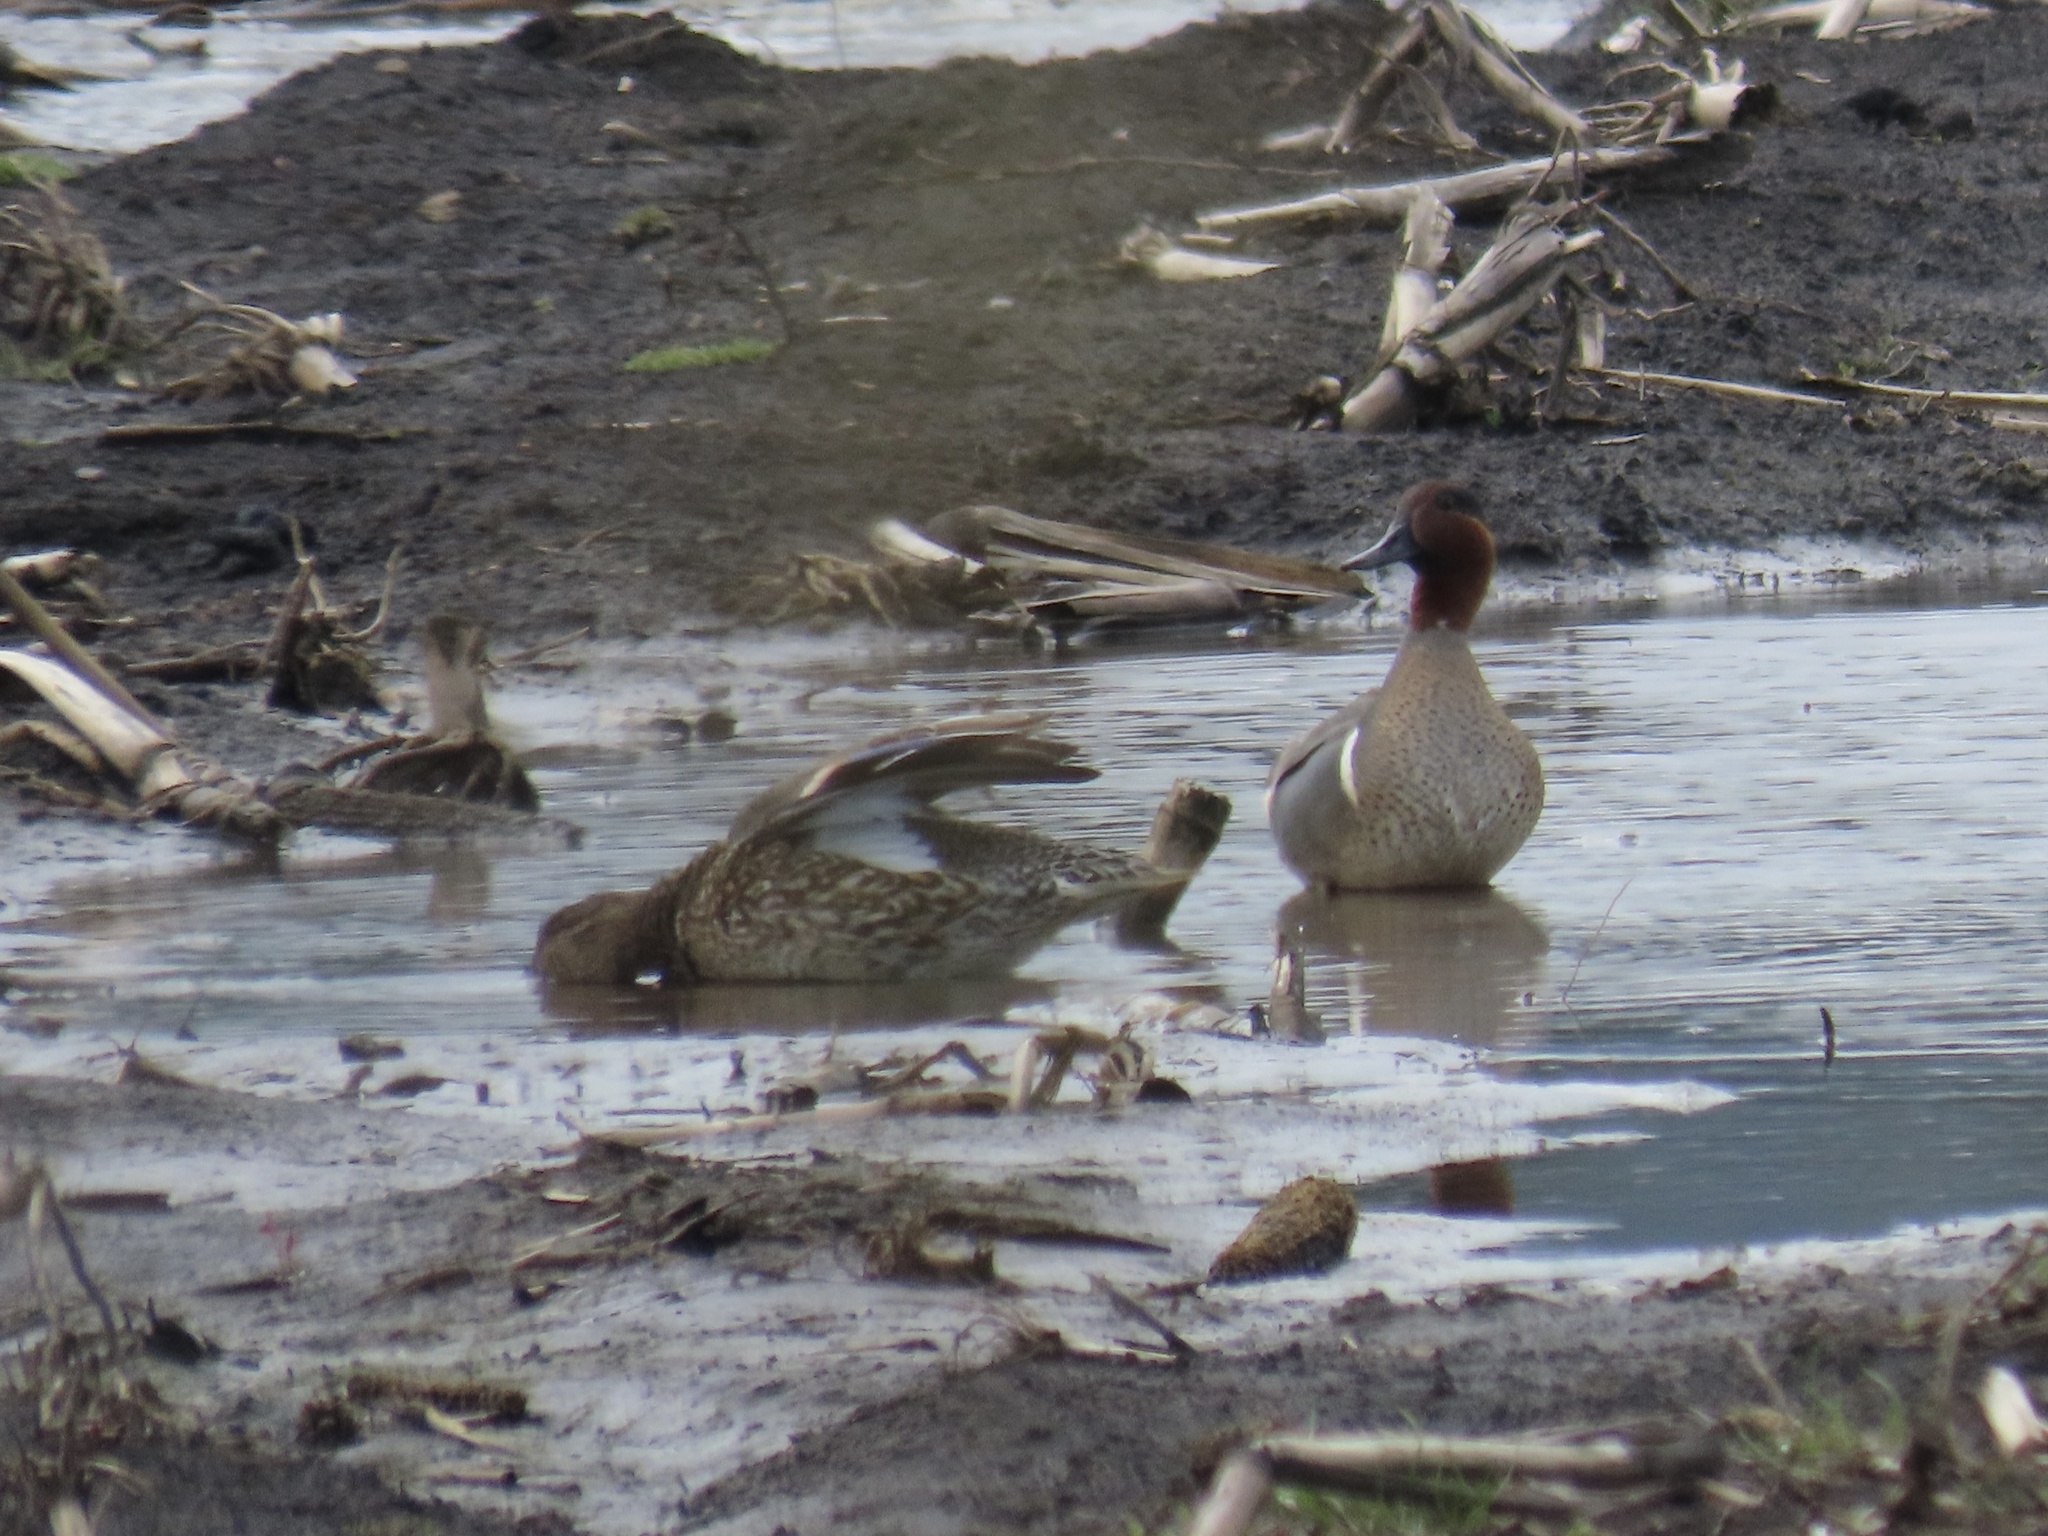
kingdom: Animalia
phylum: Chordata
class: Aves
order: Anseriformes
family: Anatidae
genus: Anas
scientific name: Anas crecca
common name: Eurasian teal
